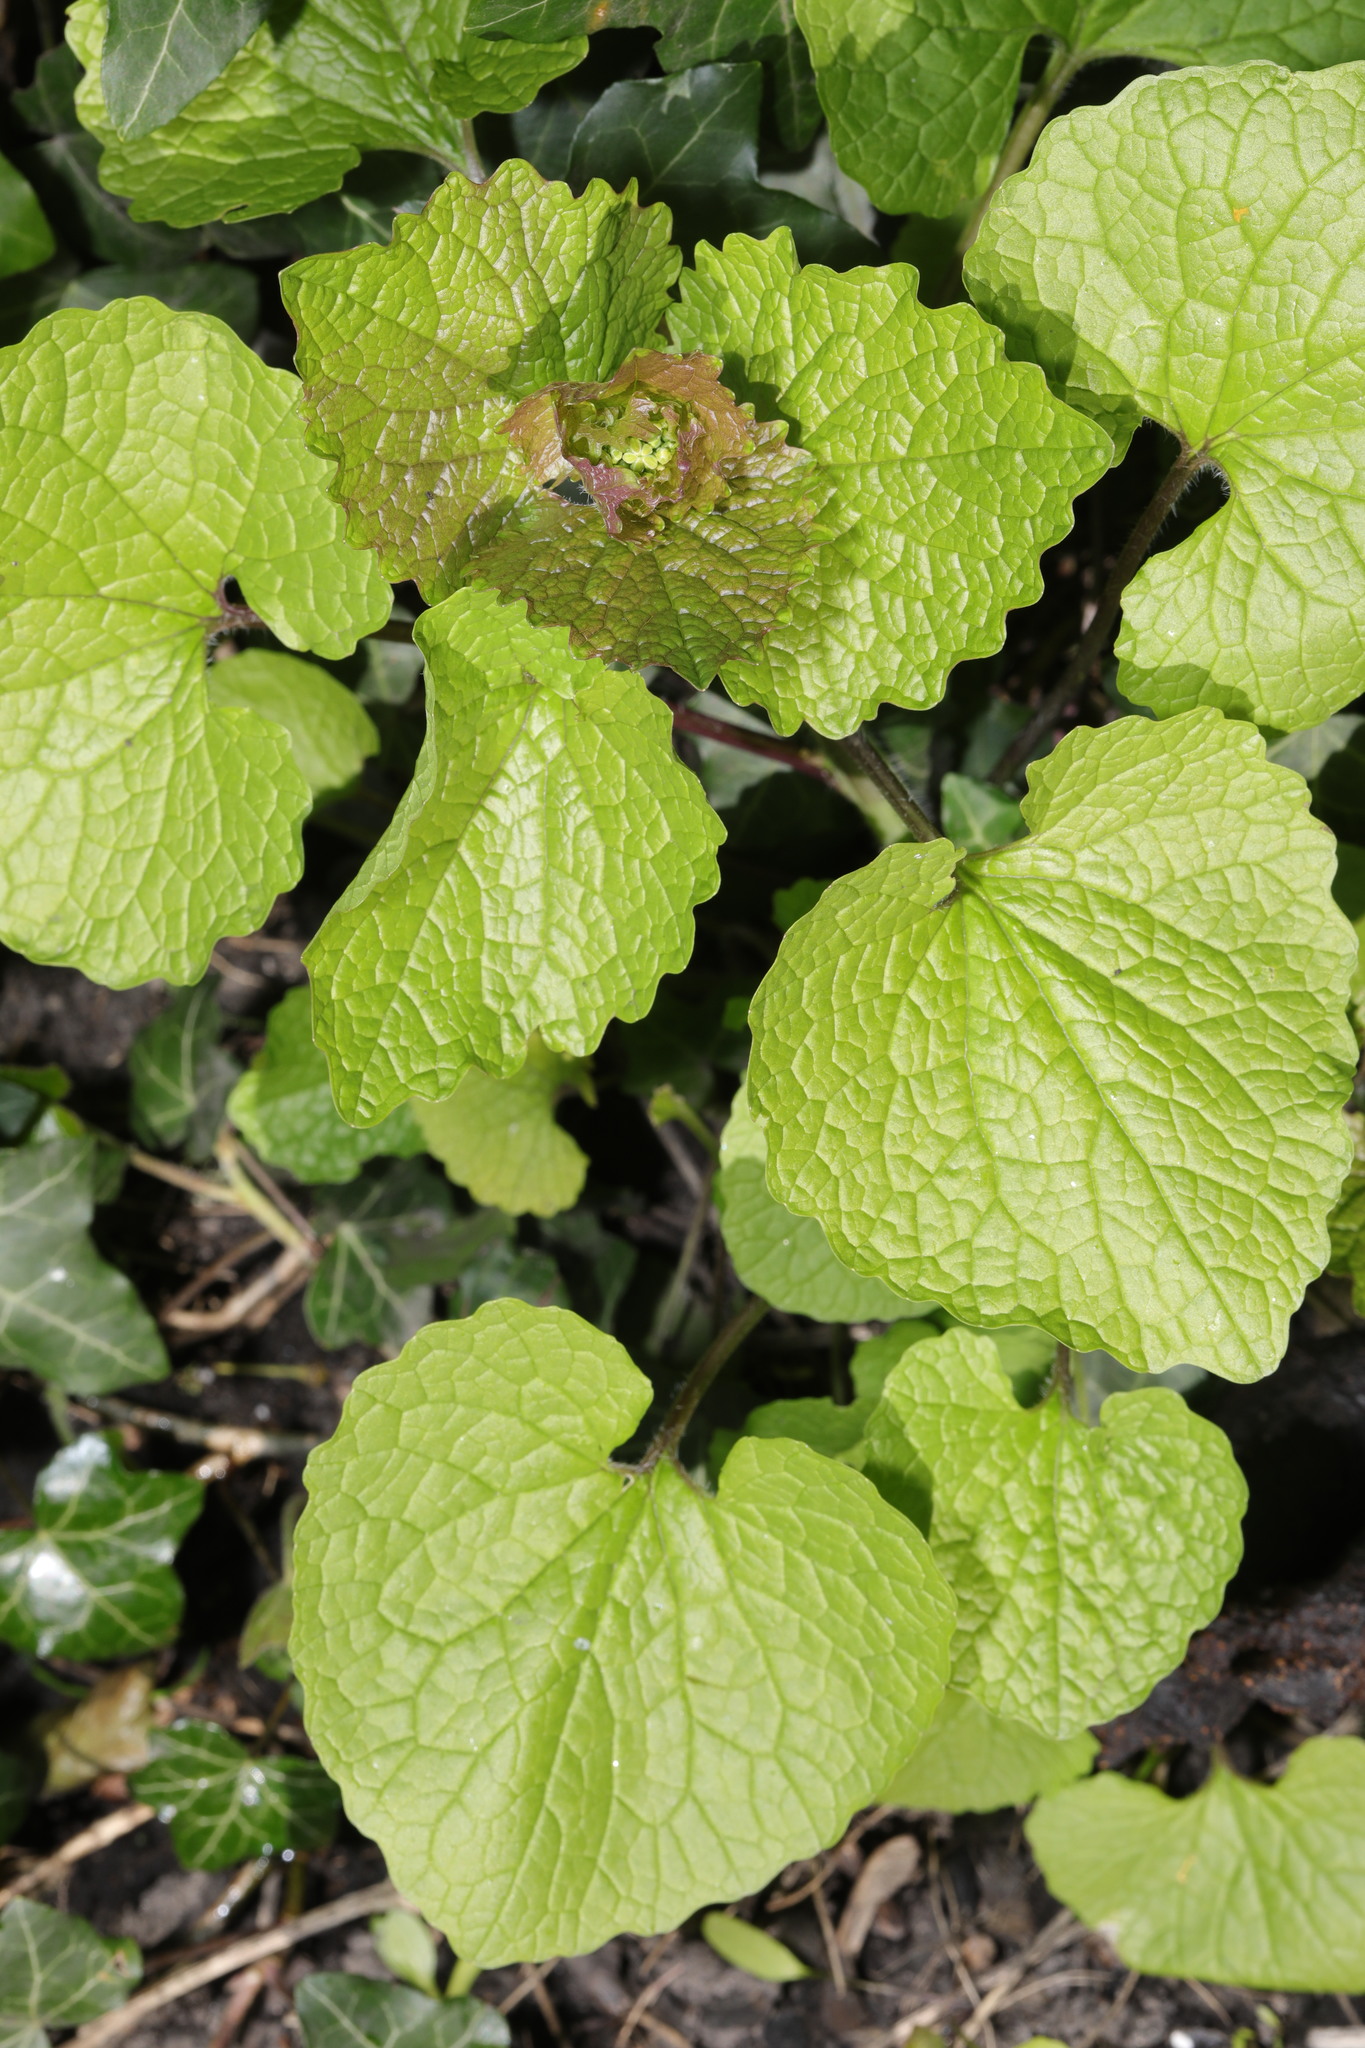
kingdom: Plantae
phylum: Tracheophyta
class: Magnoliopsida
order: Brassicales
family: Brassicaceae
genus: Alliaria
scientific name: Alliaria petiolata
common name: Garlic mustard
